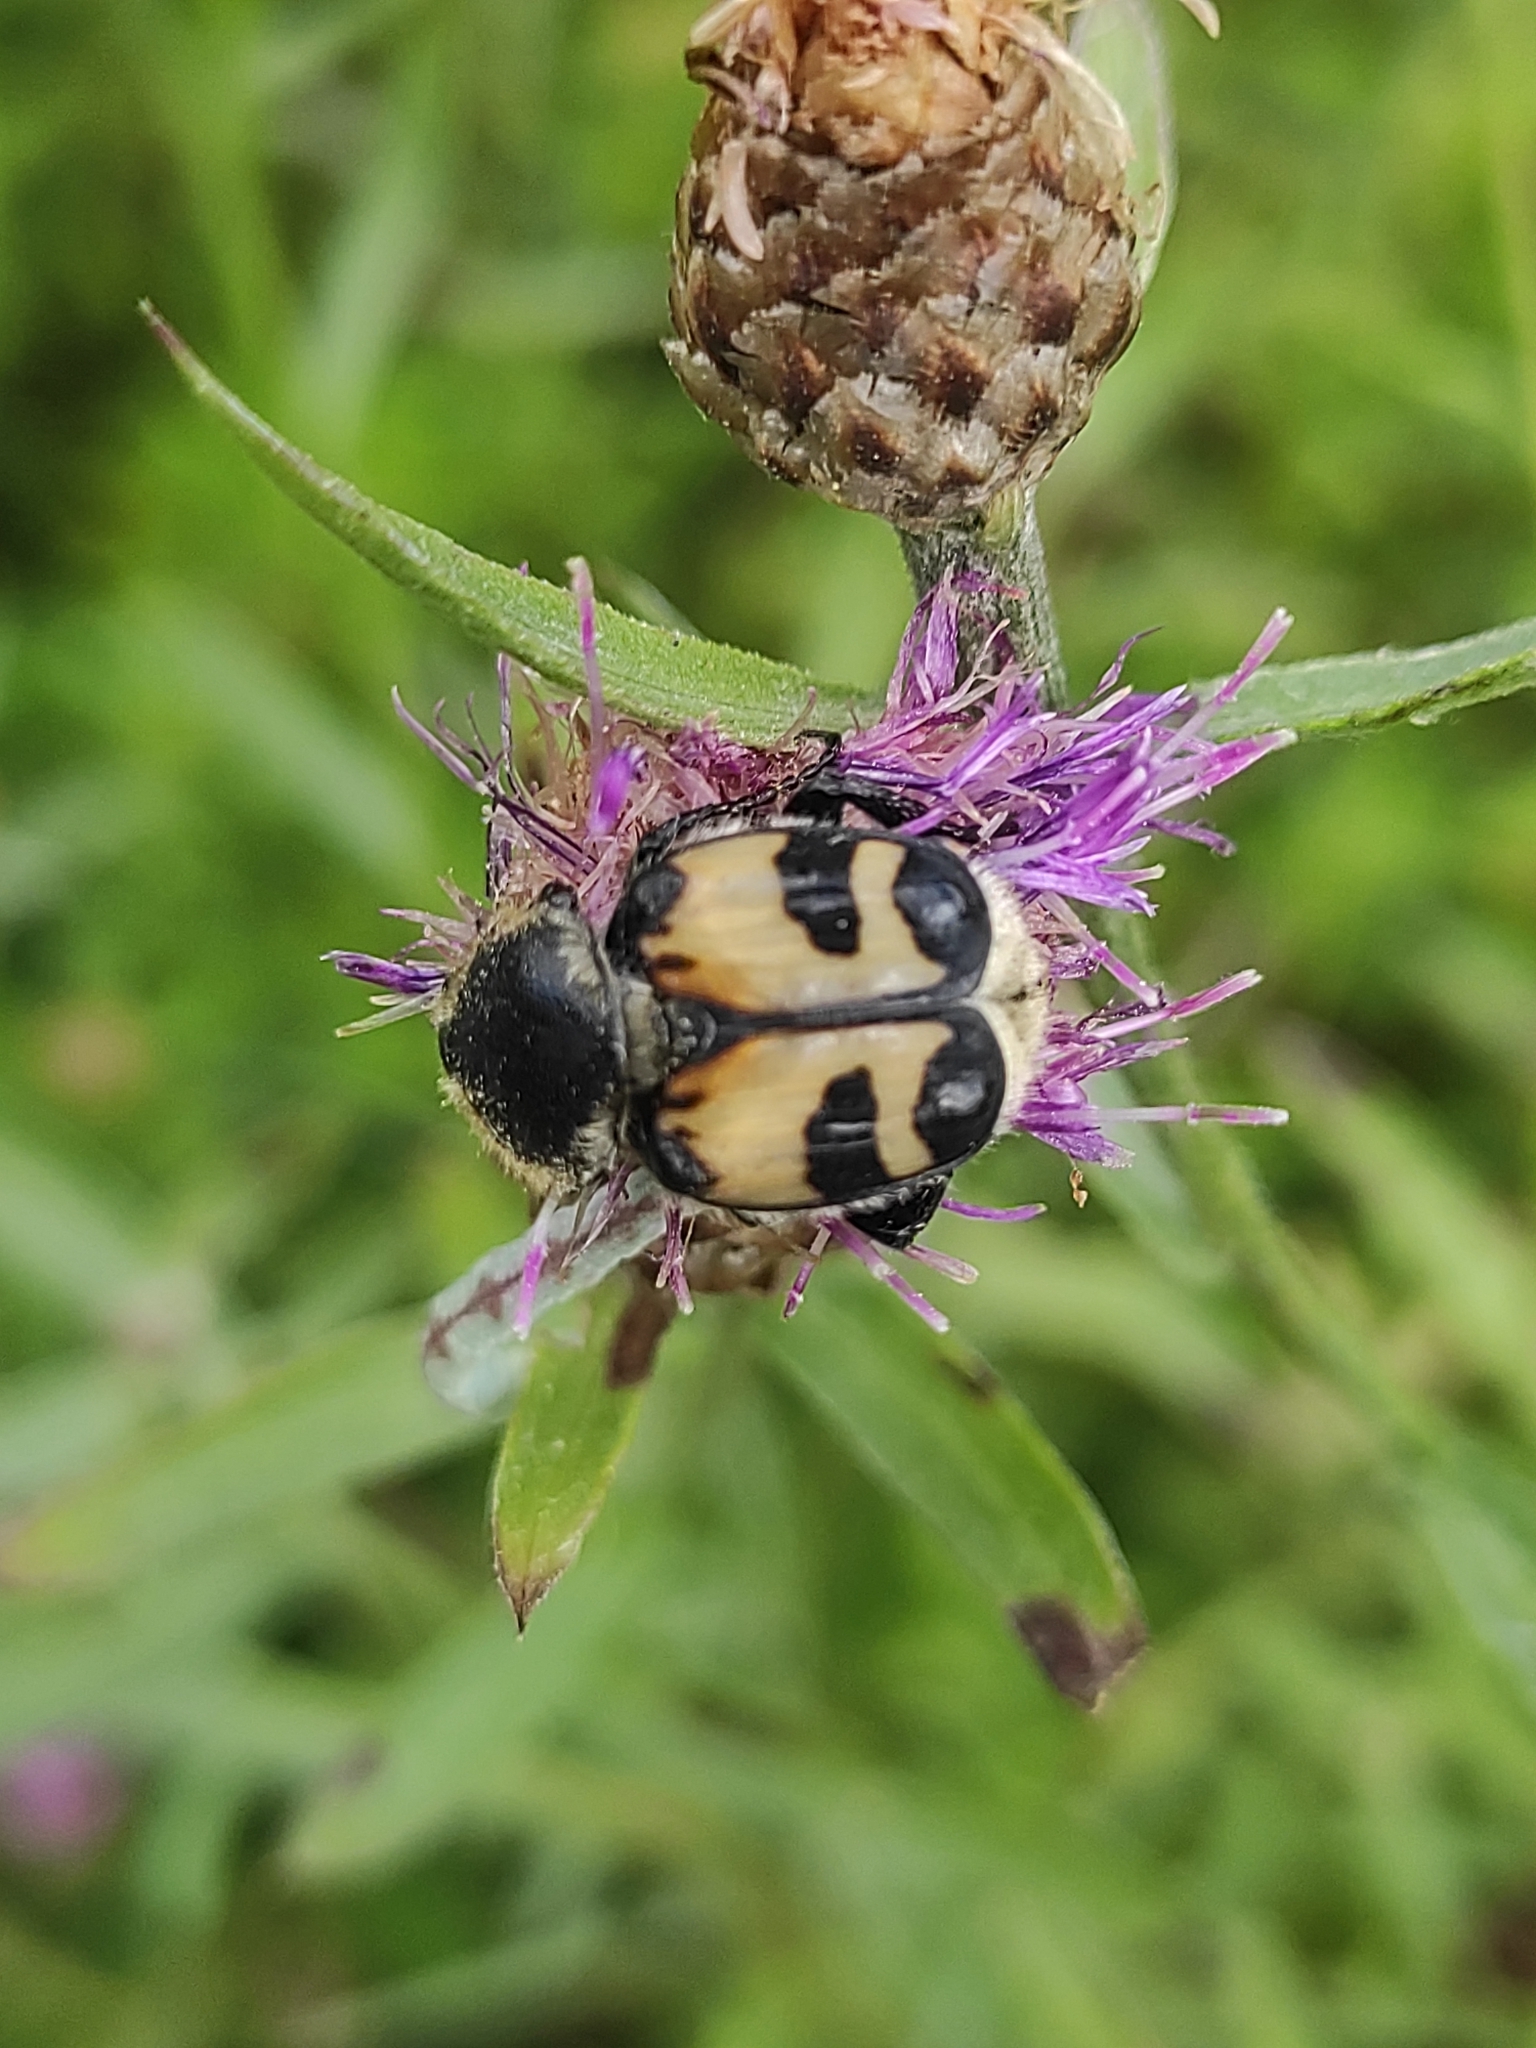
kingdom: Animalia
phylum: Arthropoda
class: Insecta
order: Coleoptera
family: Scarabaeidae
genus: Trichius
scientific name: Trichius fasciatus
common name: Bee beetle
